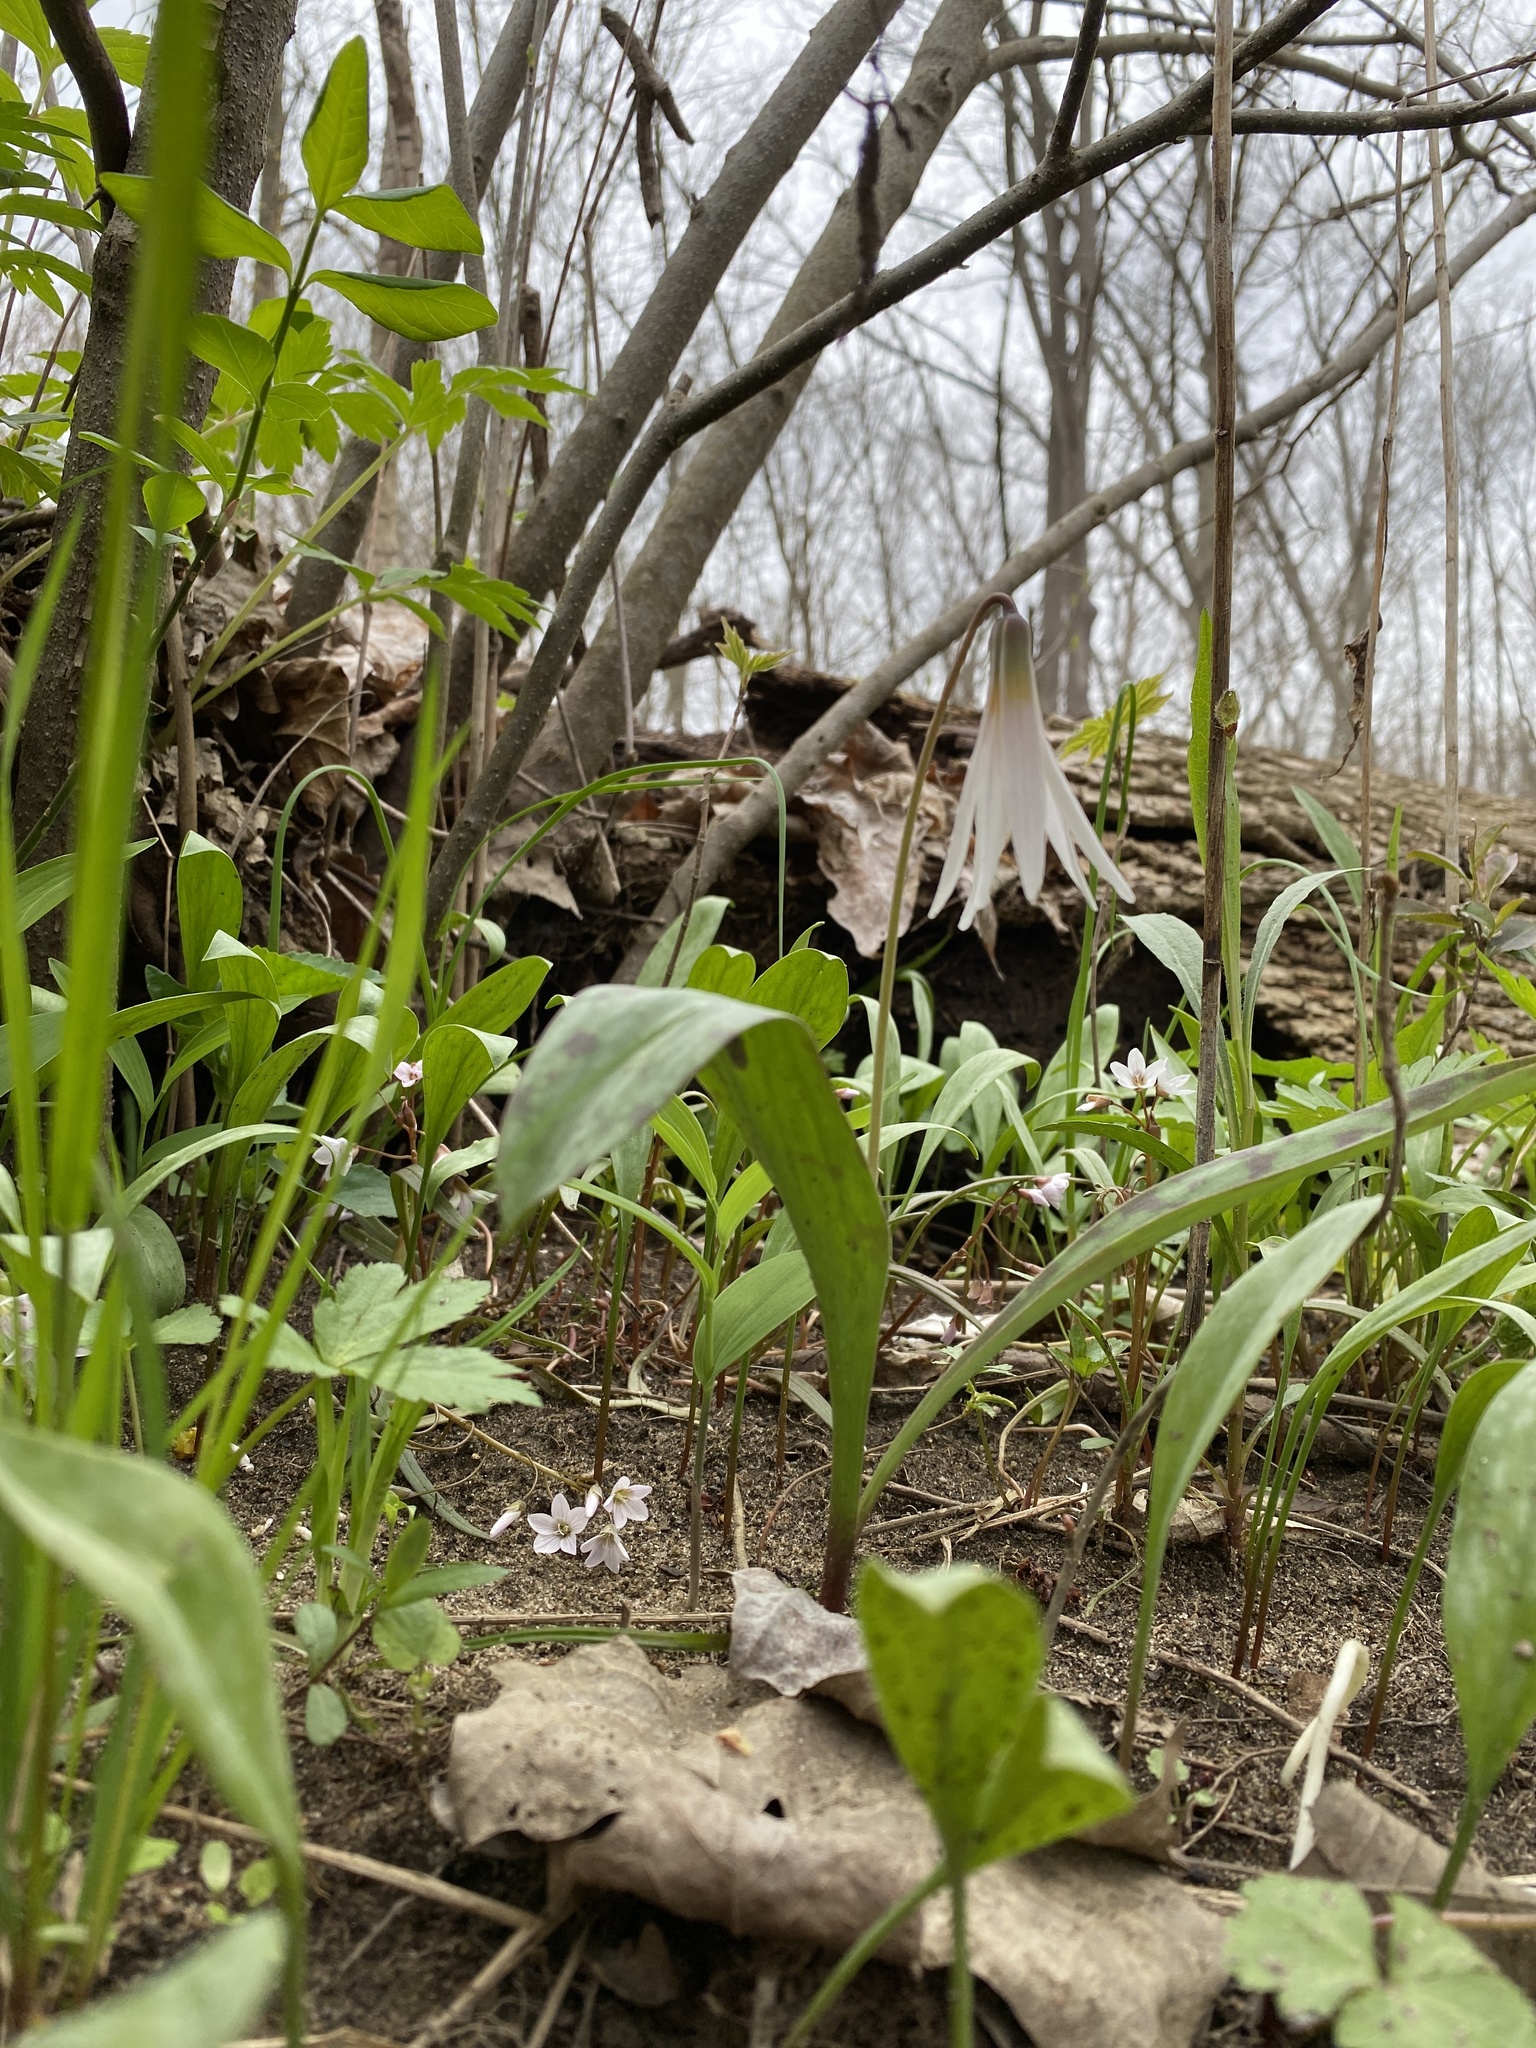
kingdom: Plantae
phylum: Tracheophyta
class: Liliopsida
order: Liliales
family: Liliaceae
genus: Erythronium
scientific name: Erythronium albidum
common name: White trout-lily
